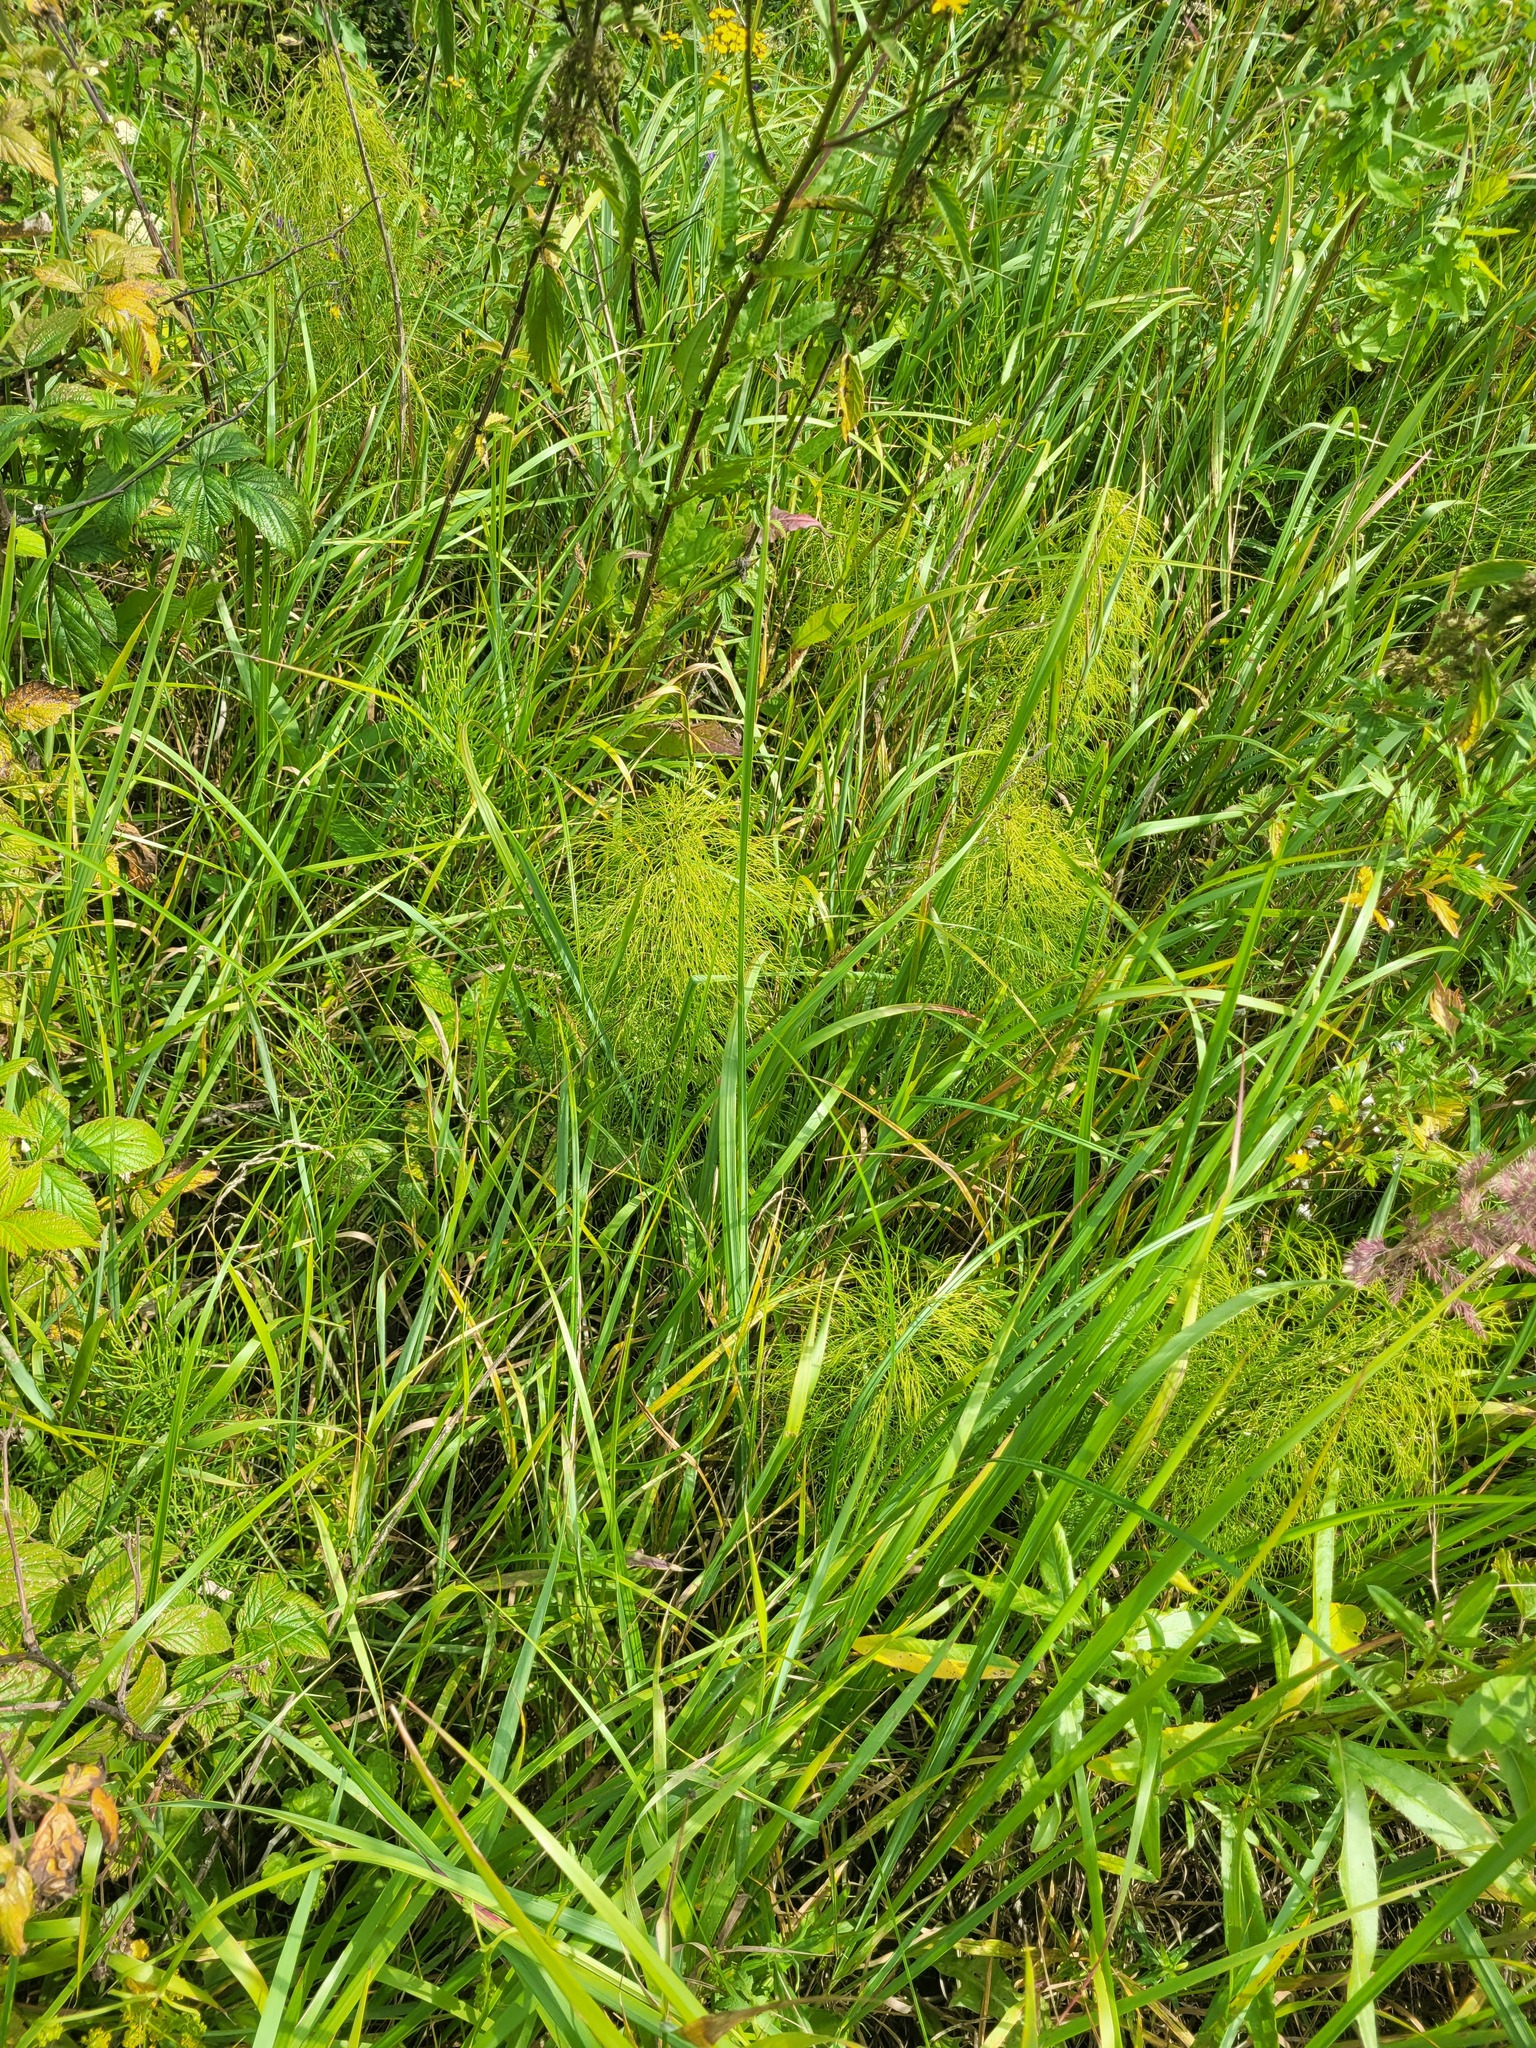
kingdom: Plantae
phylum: Tracheophyta
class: Polypodiopsida
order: Equisetales
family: Equisetaceae
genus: Equisetum
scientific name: Equisetum sylvaticum
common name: Wood horsetail
